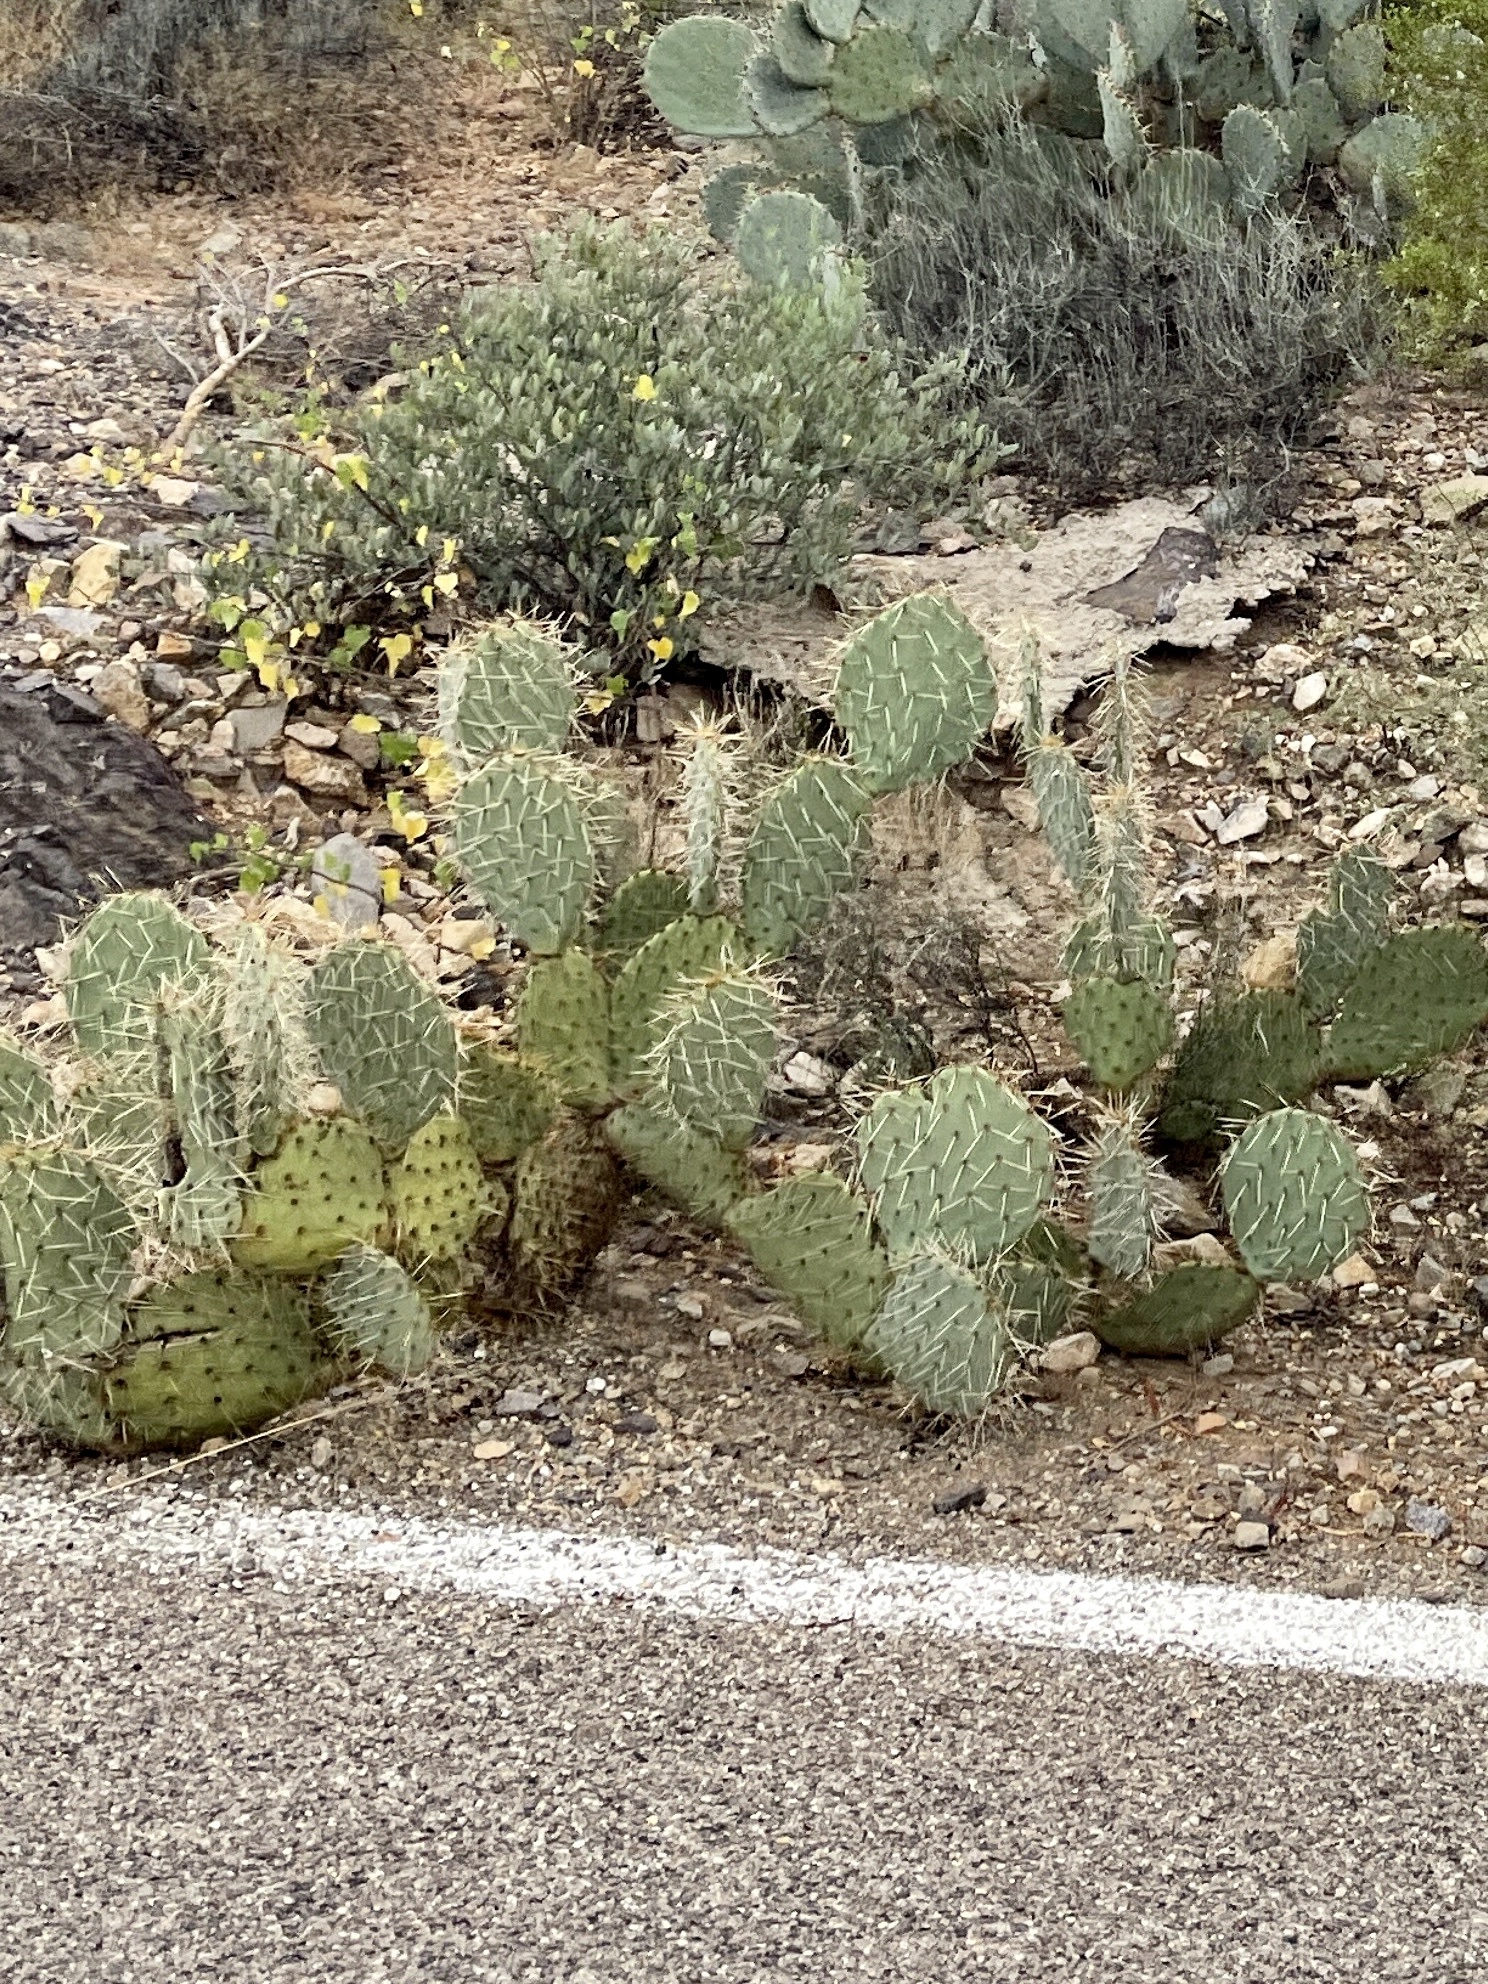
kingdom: Plantae
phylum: Tracheophyta
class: Magnoliopsida
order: Caryophyllales
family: Cactaceae
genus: Opuntia
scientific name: Opuntia engelmannii
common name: Cactus-apple
